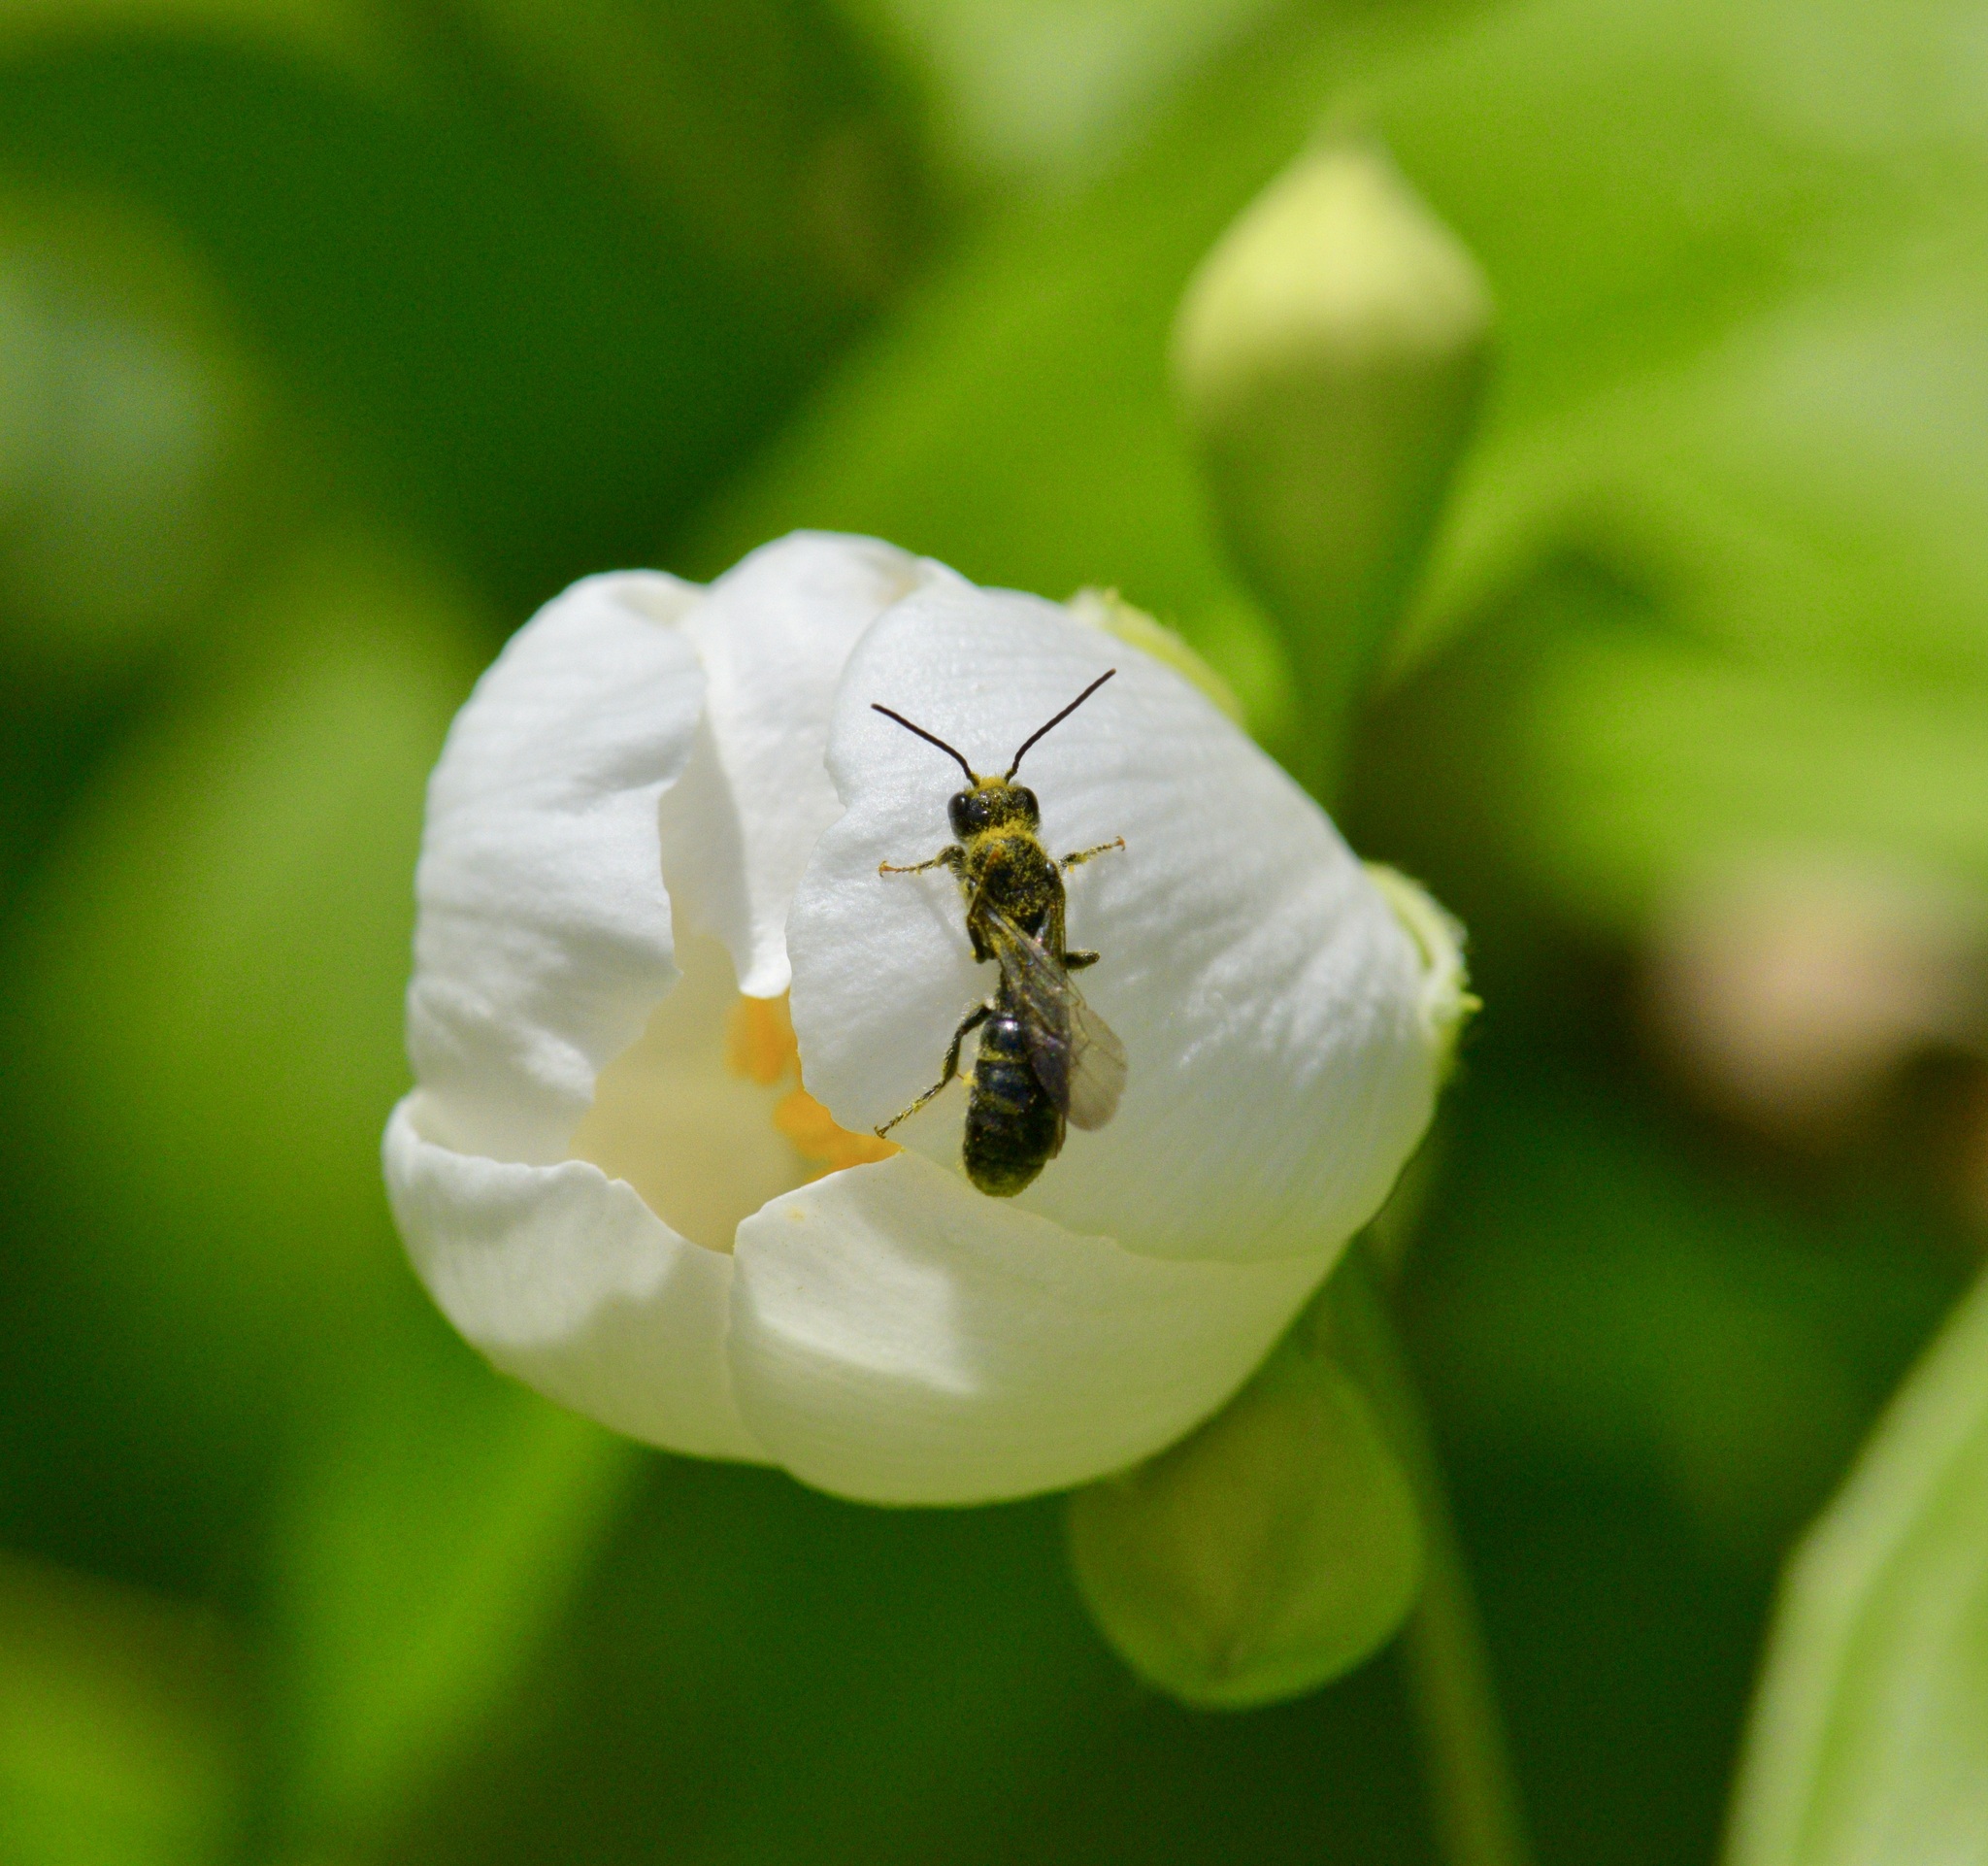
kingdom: Animalia
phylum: Arthropoda
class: Insecta
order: Hymenoptera
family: Megachilidae
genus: Chelostoma
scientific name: Chelostoma philadelphi
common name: Mock-orange scissor bee
